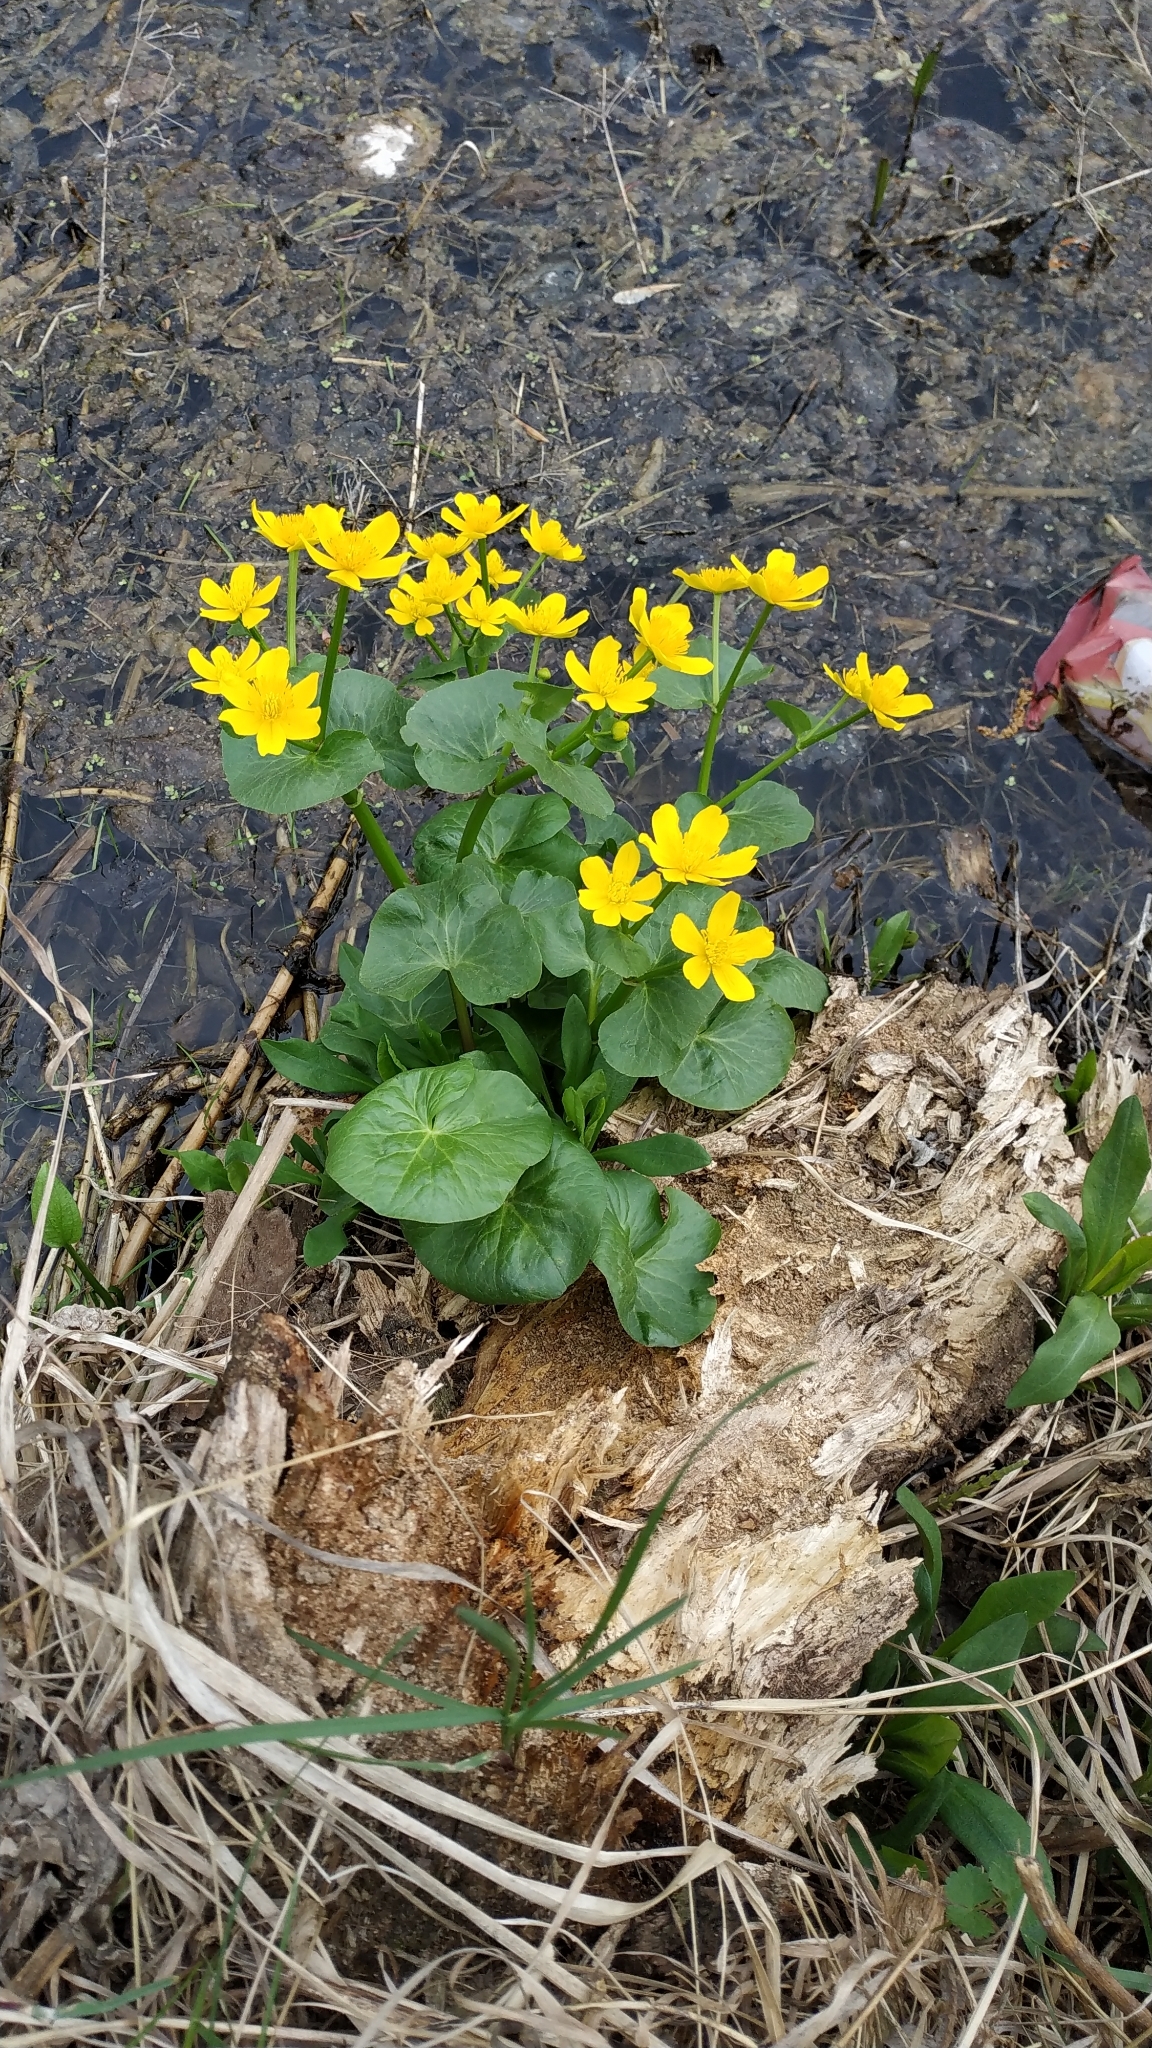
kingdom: Plantae
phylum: Tracheophyta
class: Magnoliopsida
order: Ranunculales
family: Ranunculaceae
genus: Caltha
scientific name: Caltha palustris
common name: Marsh marigold
